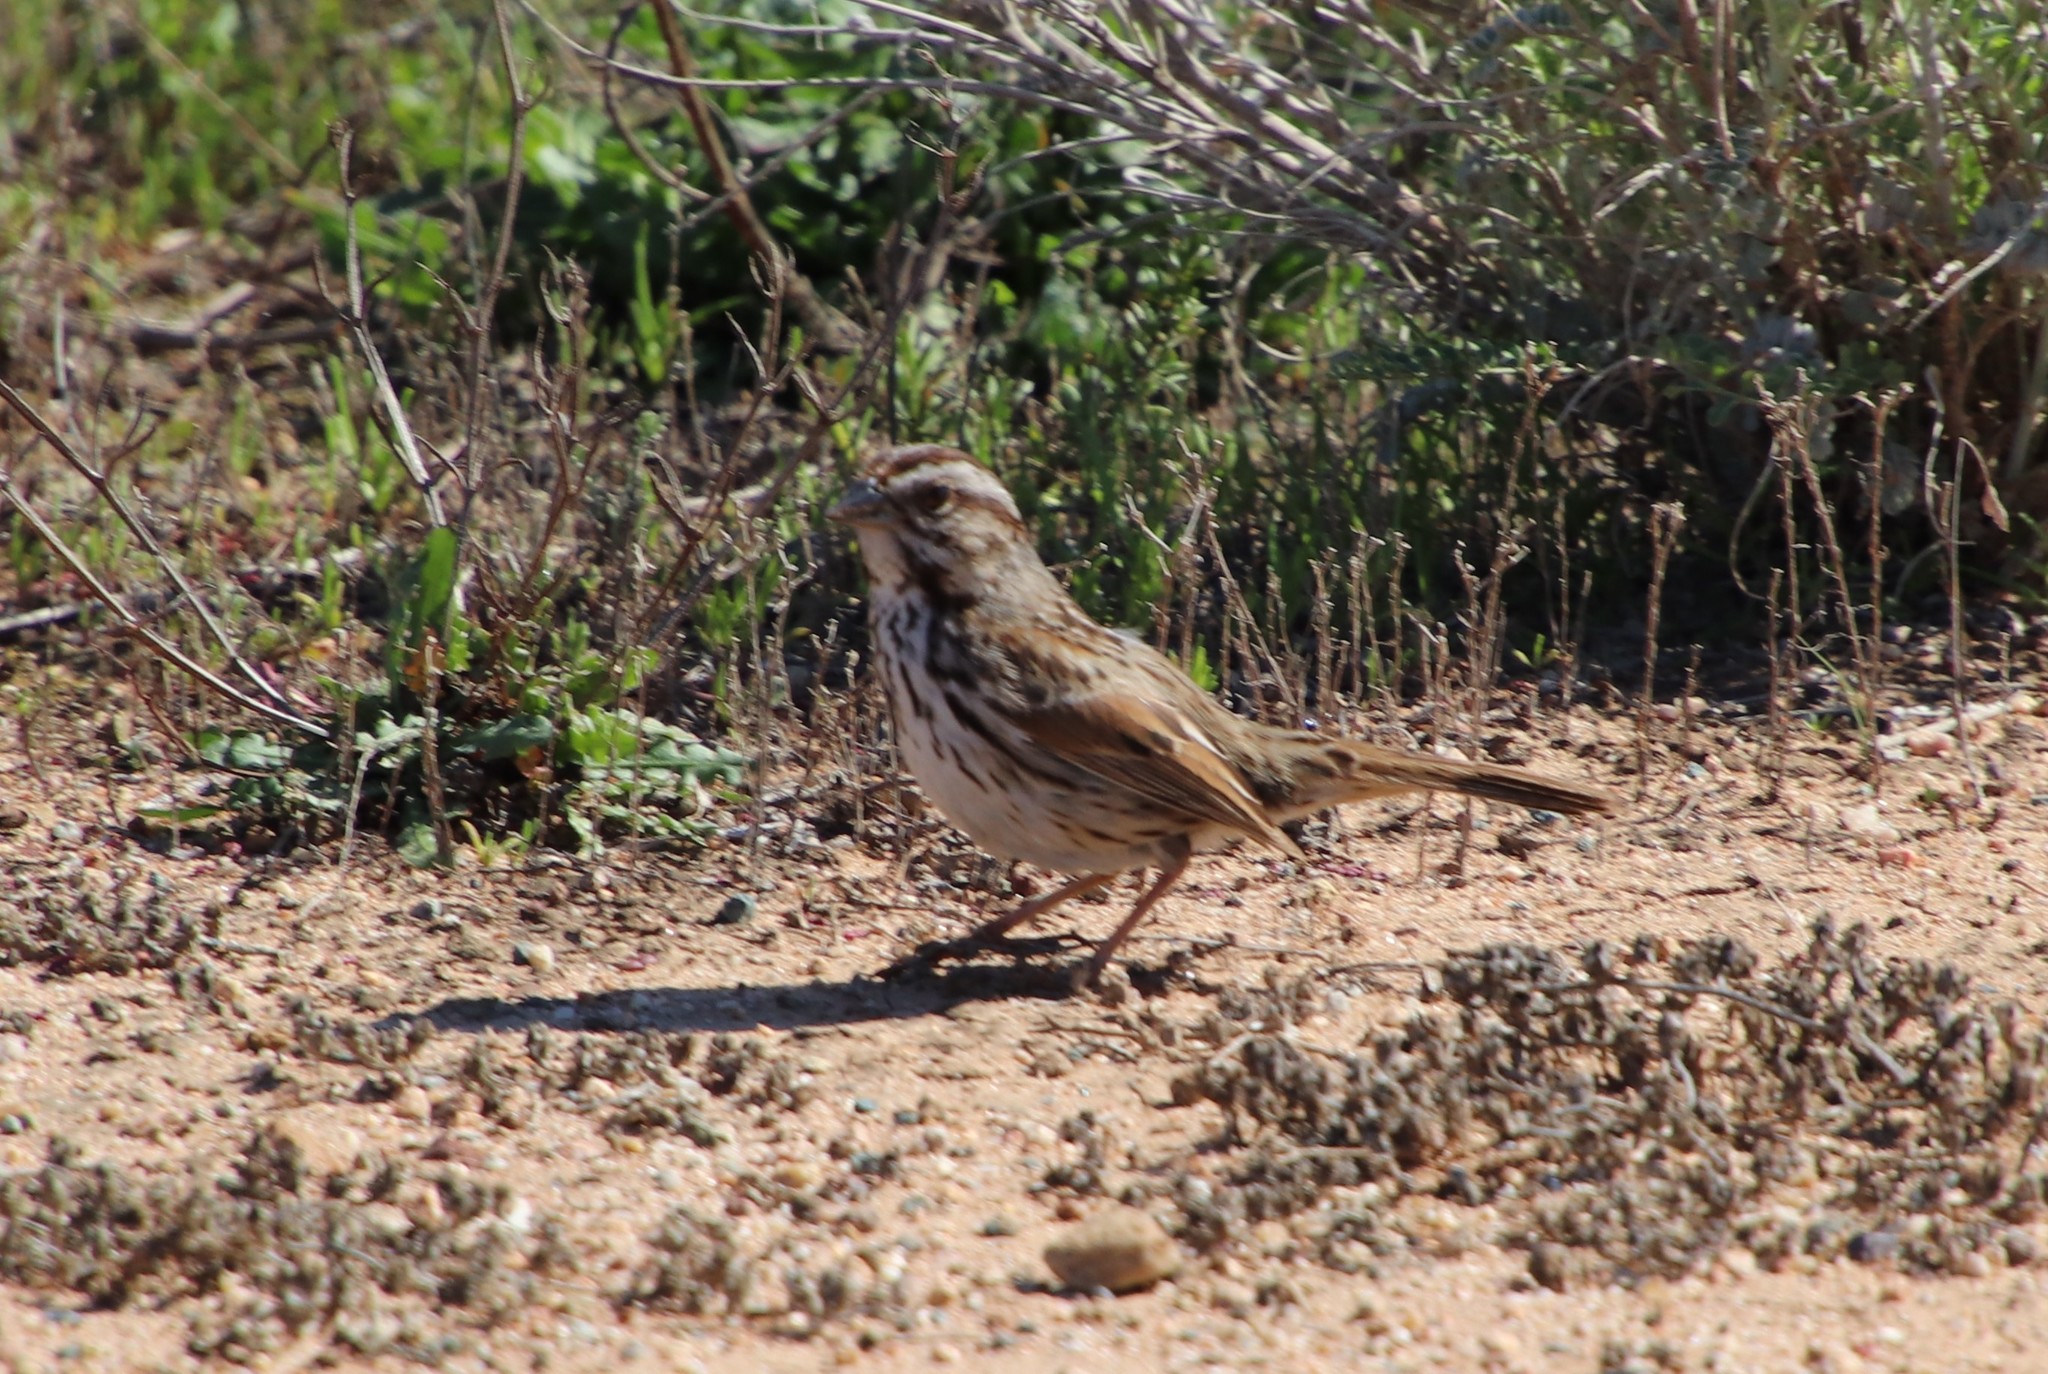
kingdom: Animalia
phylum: Chordata
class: Aves
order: Passeriformes
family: Passerellidae
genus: Melospiza
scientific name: Melospiza melodia
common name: Song sparrow
